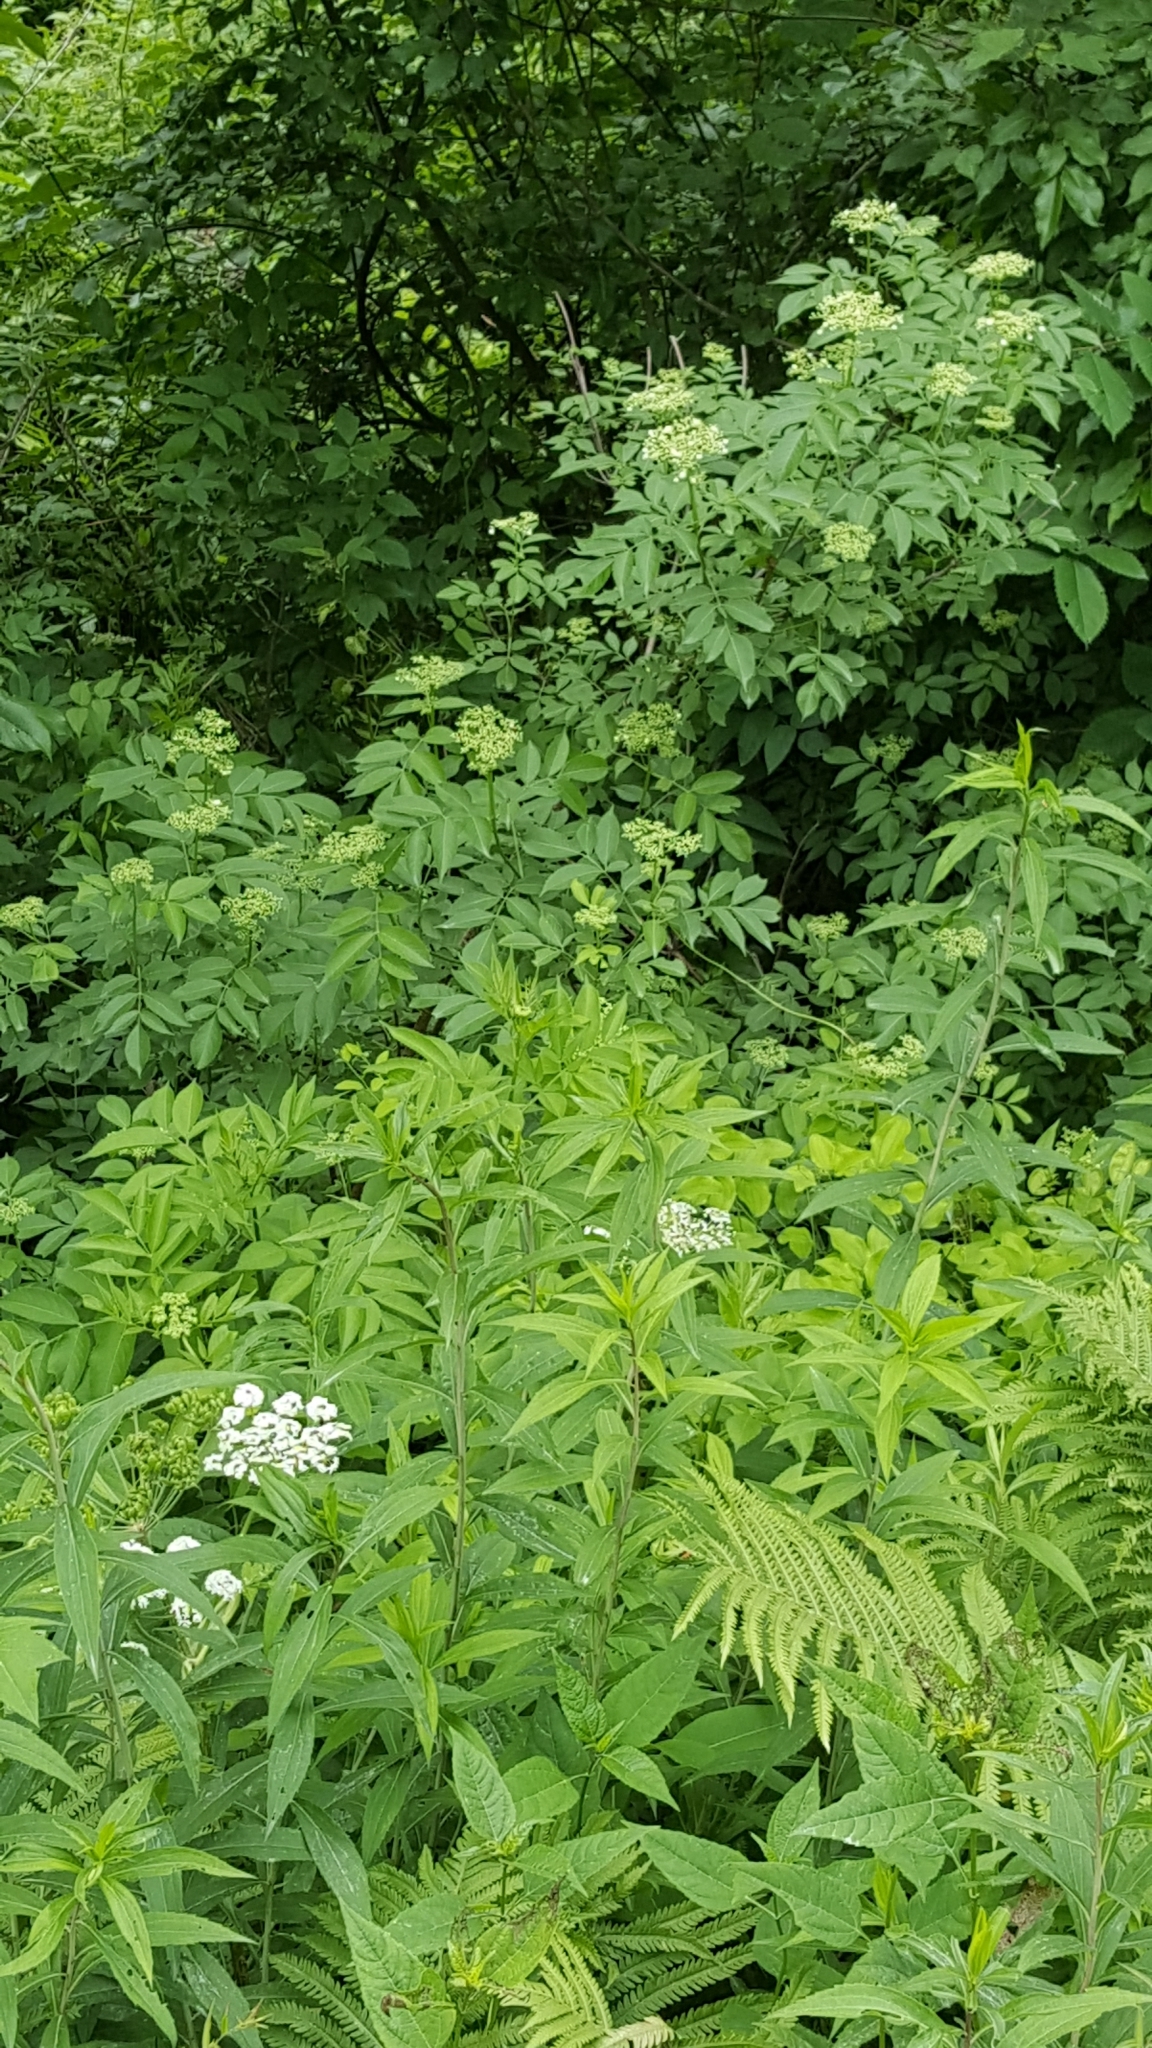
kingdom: Plantae
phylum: Tracheophyta
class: Magnoliopsida
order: Dipsacales
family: Viburnaceae
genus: Sambucus
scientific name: Sambucus canadensis
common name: American elder
